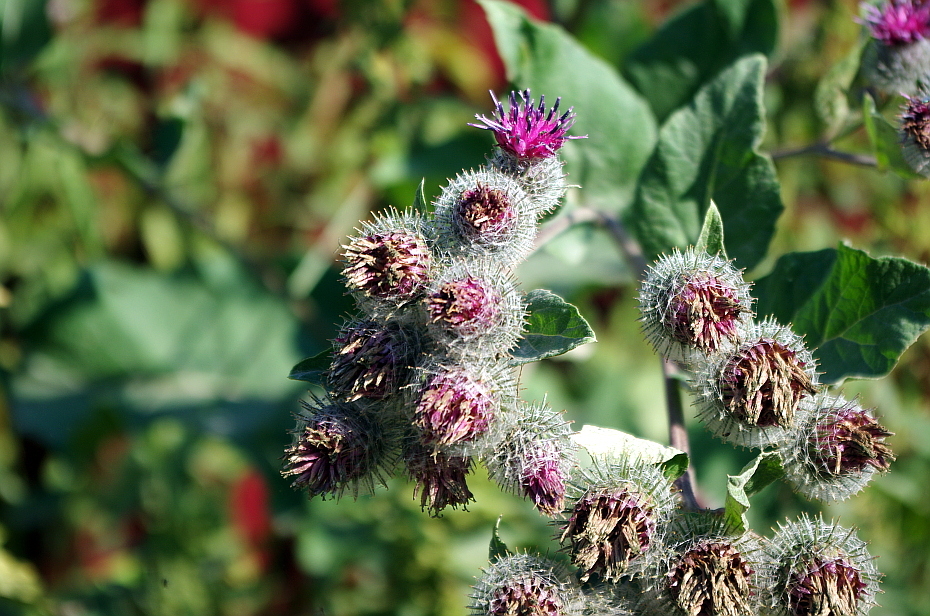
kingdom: Plantae
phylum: Tracheophyta
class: Magnoliopsida
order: Asterales
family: Asteraceae
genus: Arctium
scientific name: Arctium tomentosum
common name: Woolly burdock
